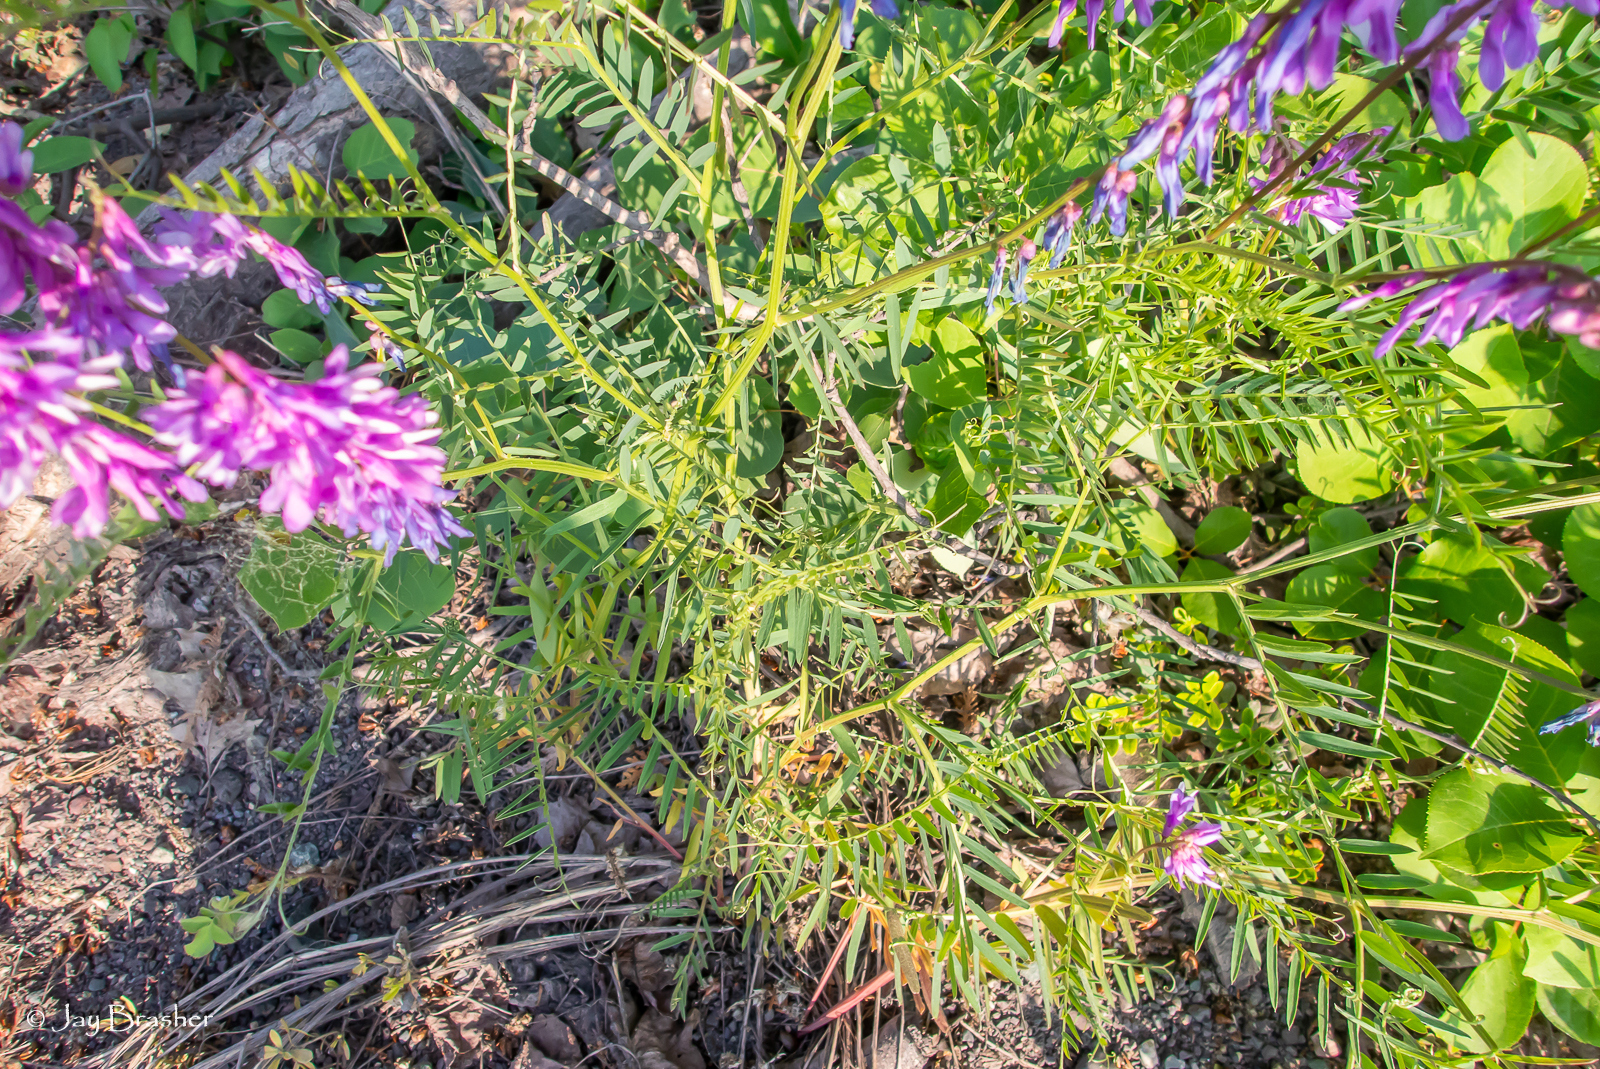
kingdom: Plantae
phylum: Tracheophyta
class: Magnoliopsida
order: Fabales
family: Fabaceae
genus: Vicia
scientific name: Vicia cracca
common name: Bird vetch
